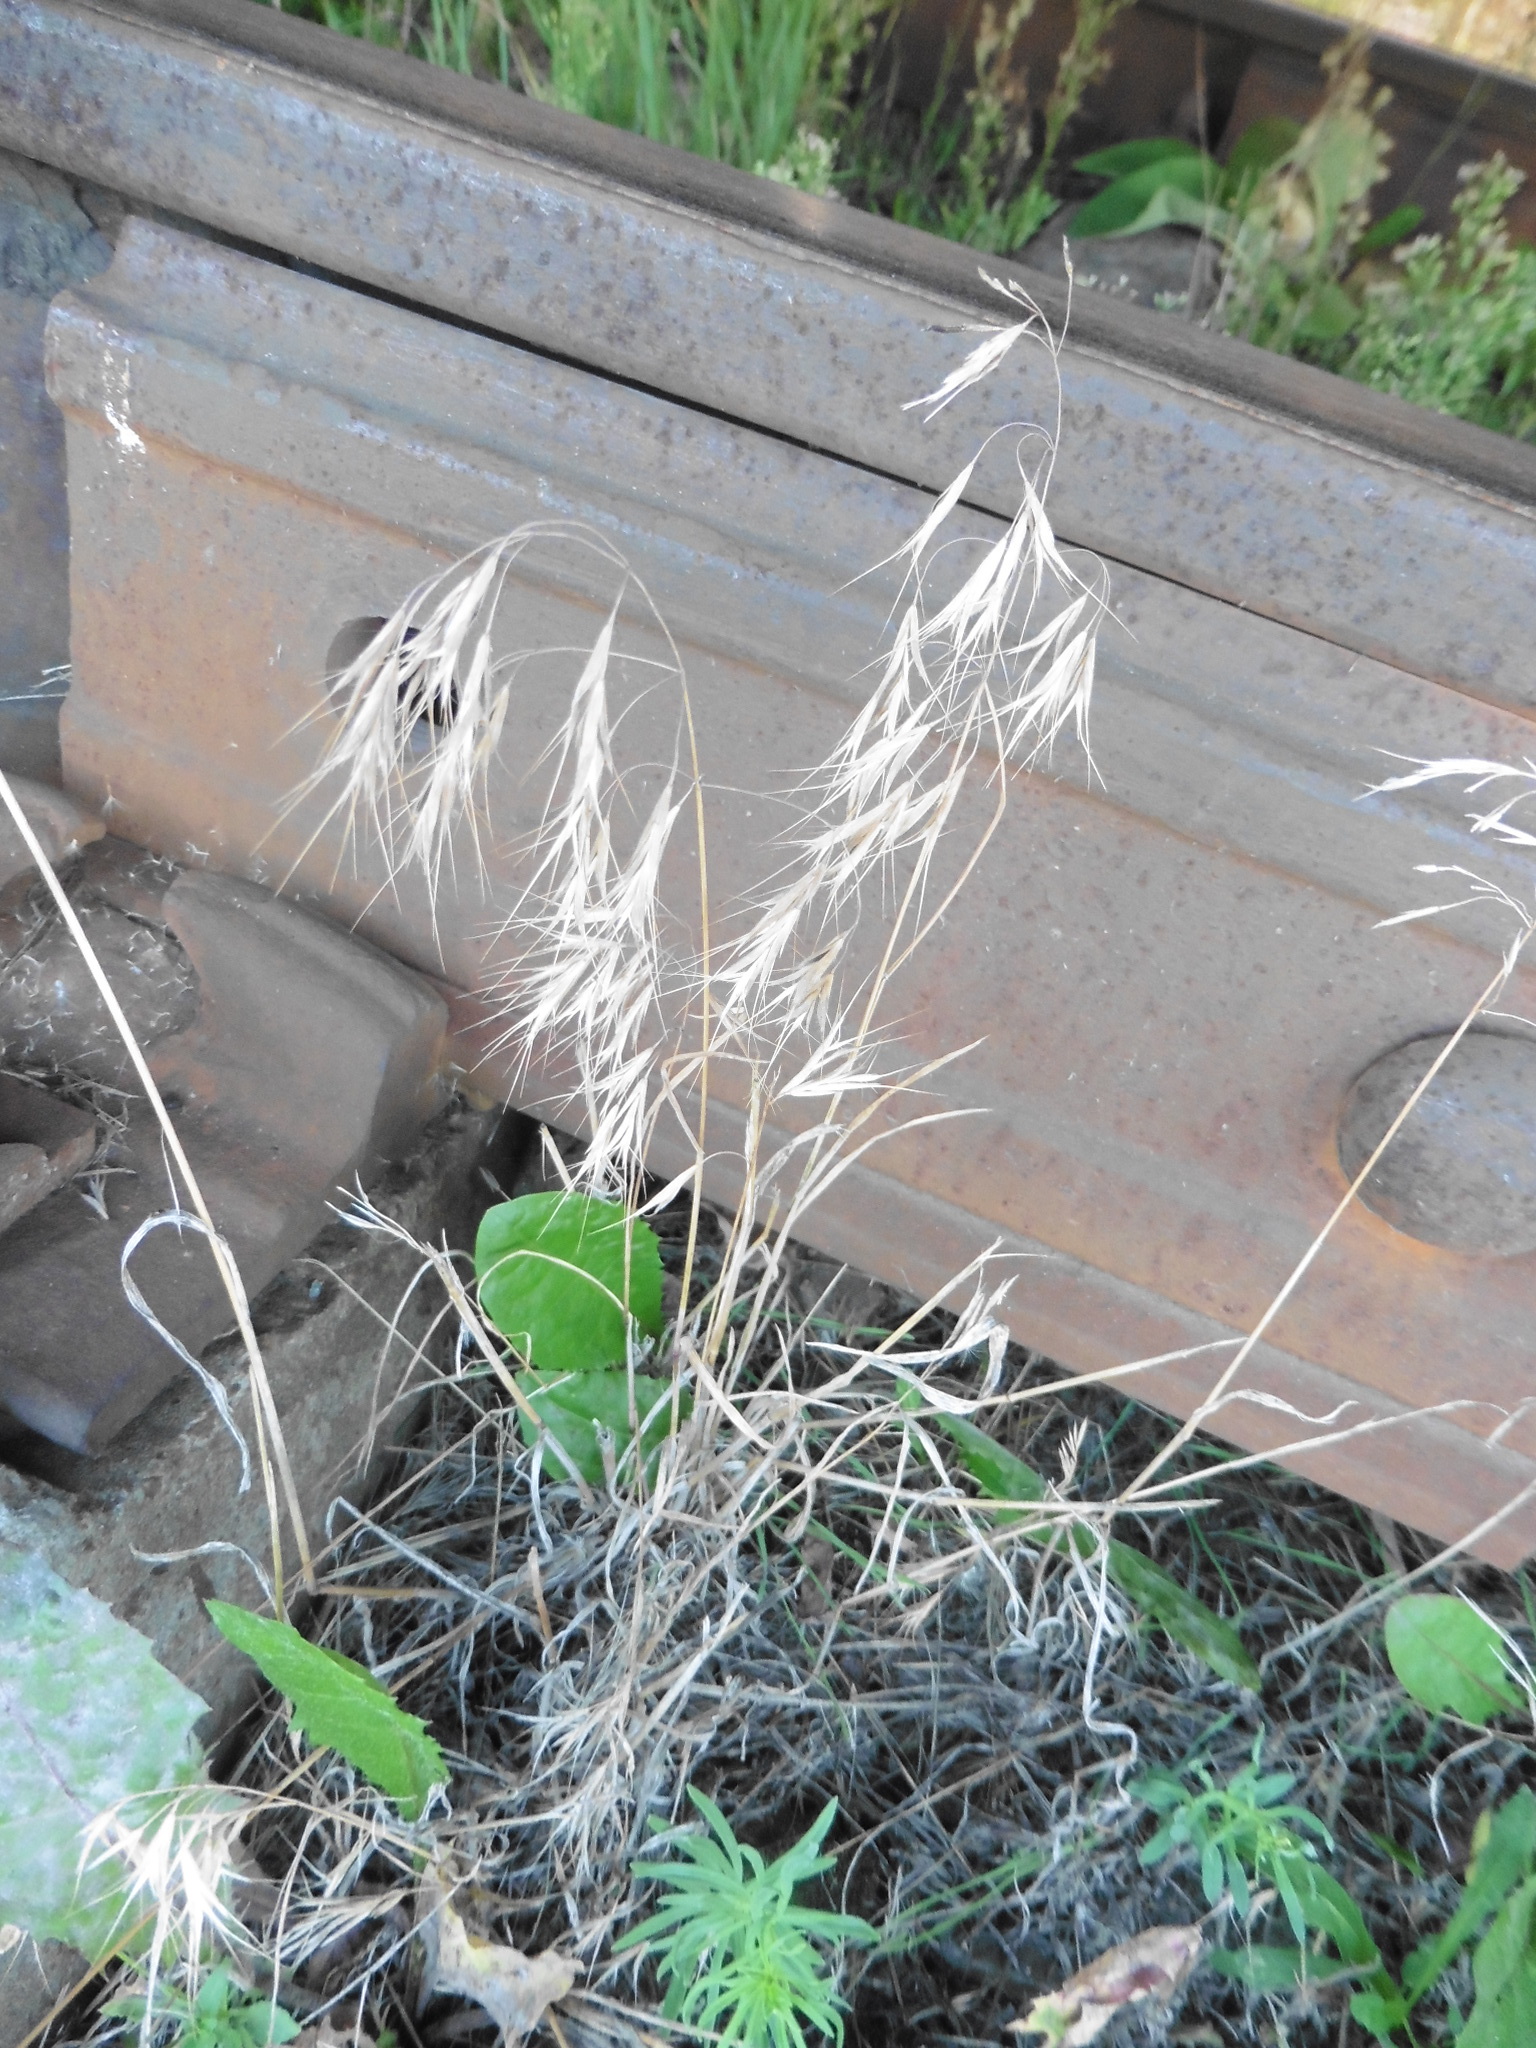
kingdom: Plantae
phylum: Tracheophyta
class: Liliopsida
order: Poales
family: Poaceae
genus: Bromus
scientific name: Bromus tectorum
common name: Cheatgrass
